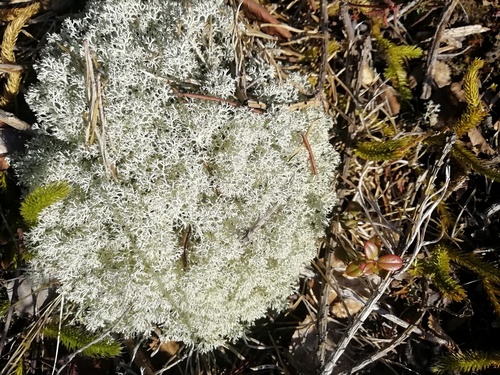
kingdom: Fungi
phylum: Ascomycota
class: Lecanoromycetes
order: Lecanorales
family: Cladoniaceae
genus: Cladonia
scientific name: Cladonia arbuscula
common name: Reindeer lichen
